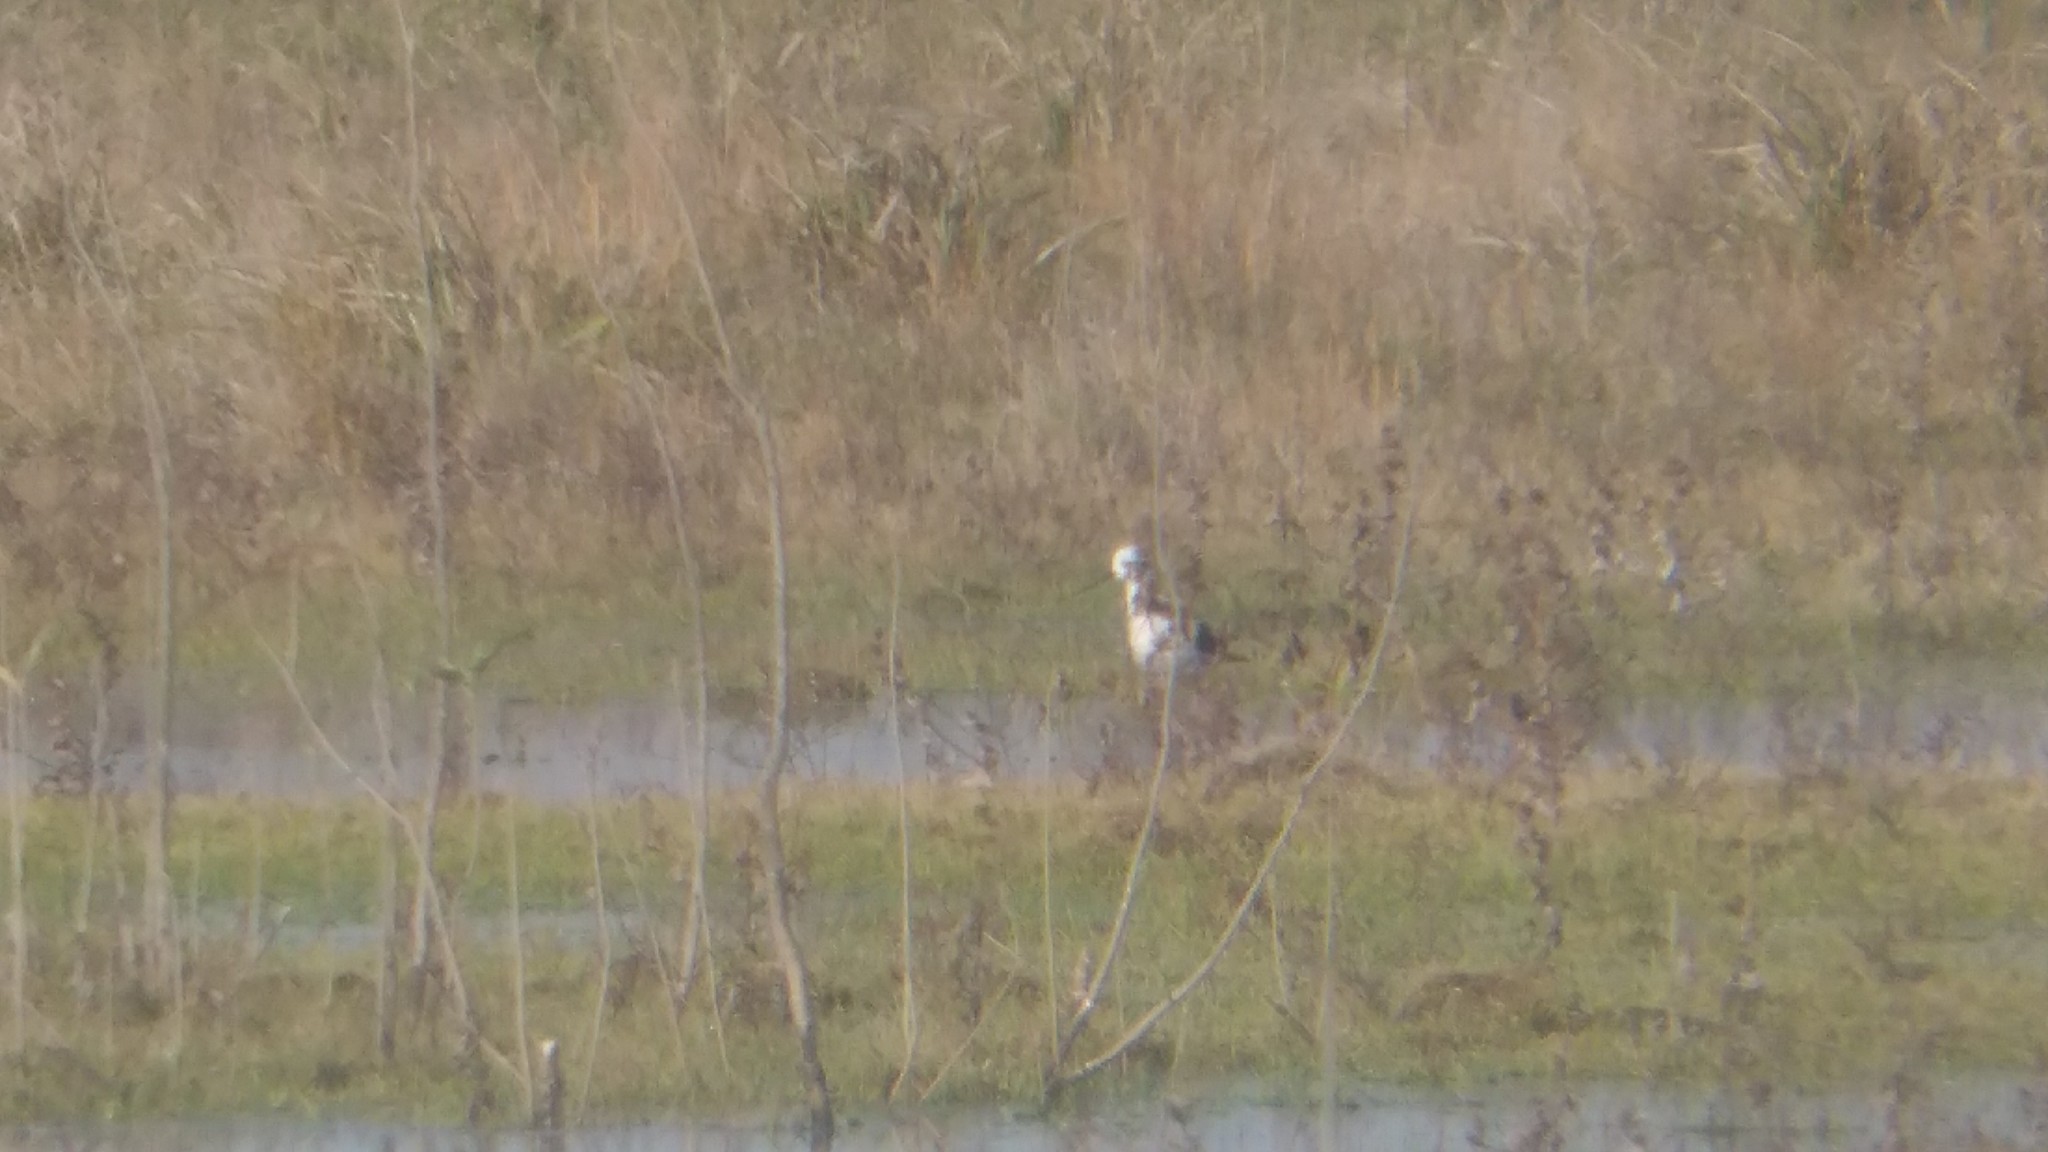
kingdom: Animalia
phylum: Chordata
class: Aves
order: Charadriiformes
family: Recurvirostridae
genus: Himantopus
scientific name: Himantopus mexicanus
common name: Black-necked stilt
